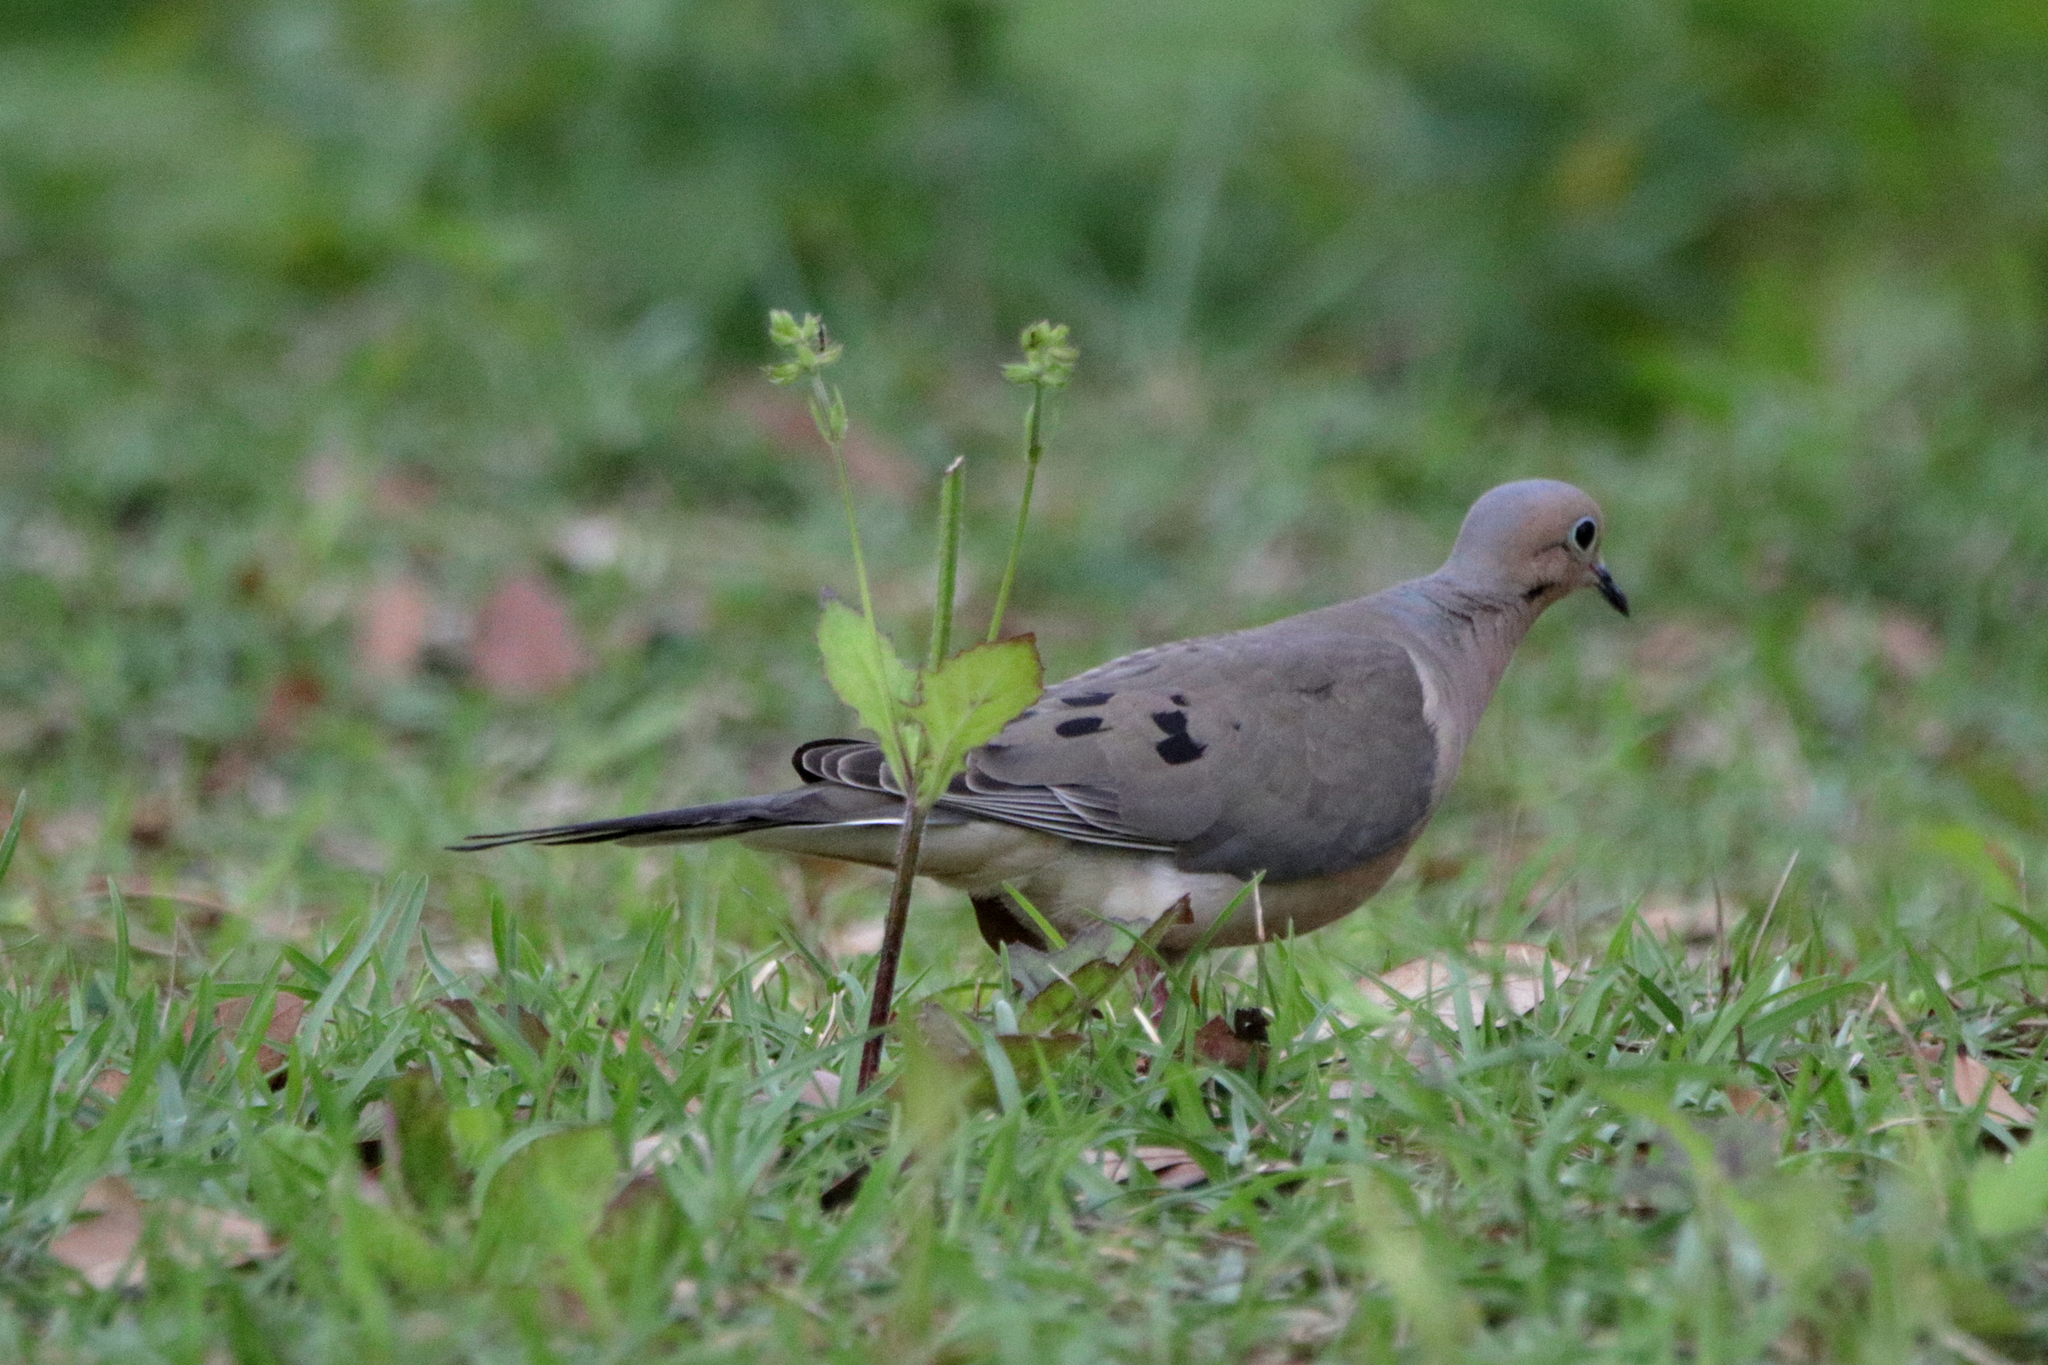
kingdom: Animalia
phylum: Chordata
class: Aves
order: Columbiformes
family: Columbidae
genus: Zenaida
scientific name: Zenaida macroura
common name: Mourning dove
